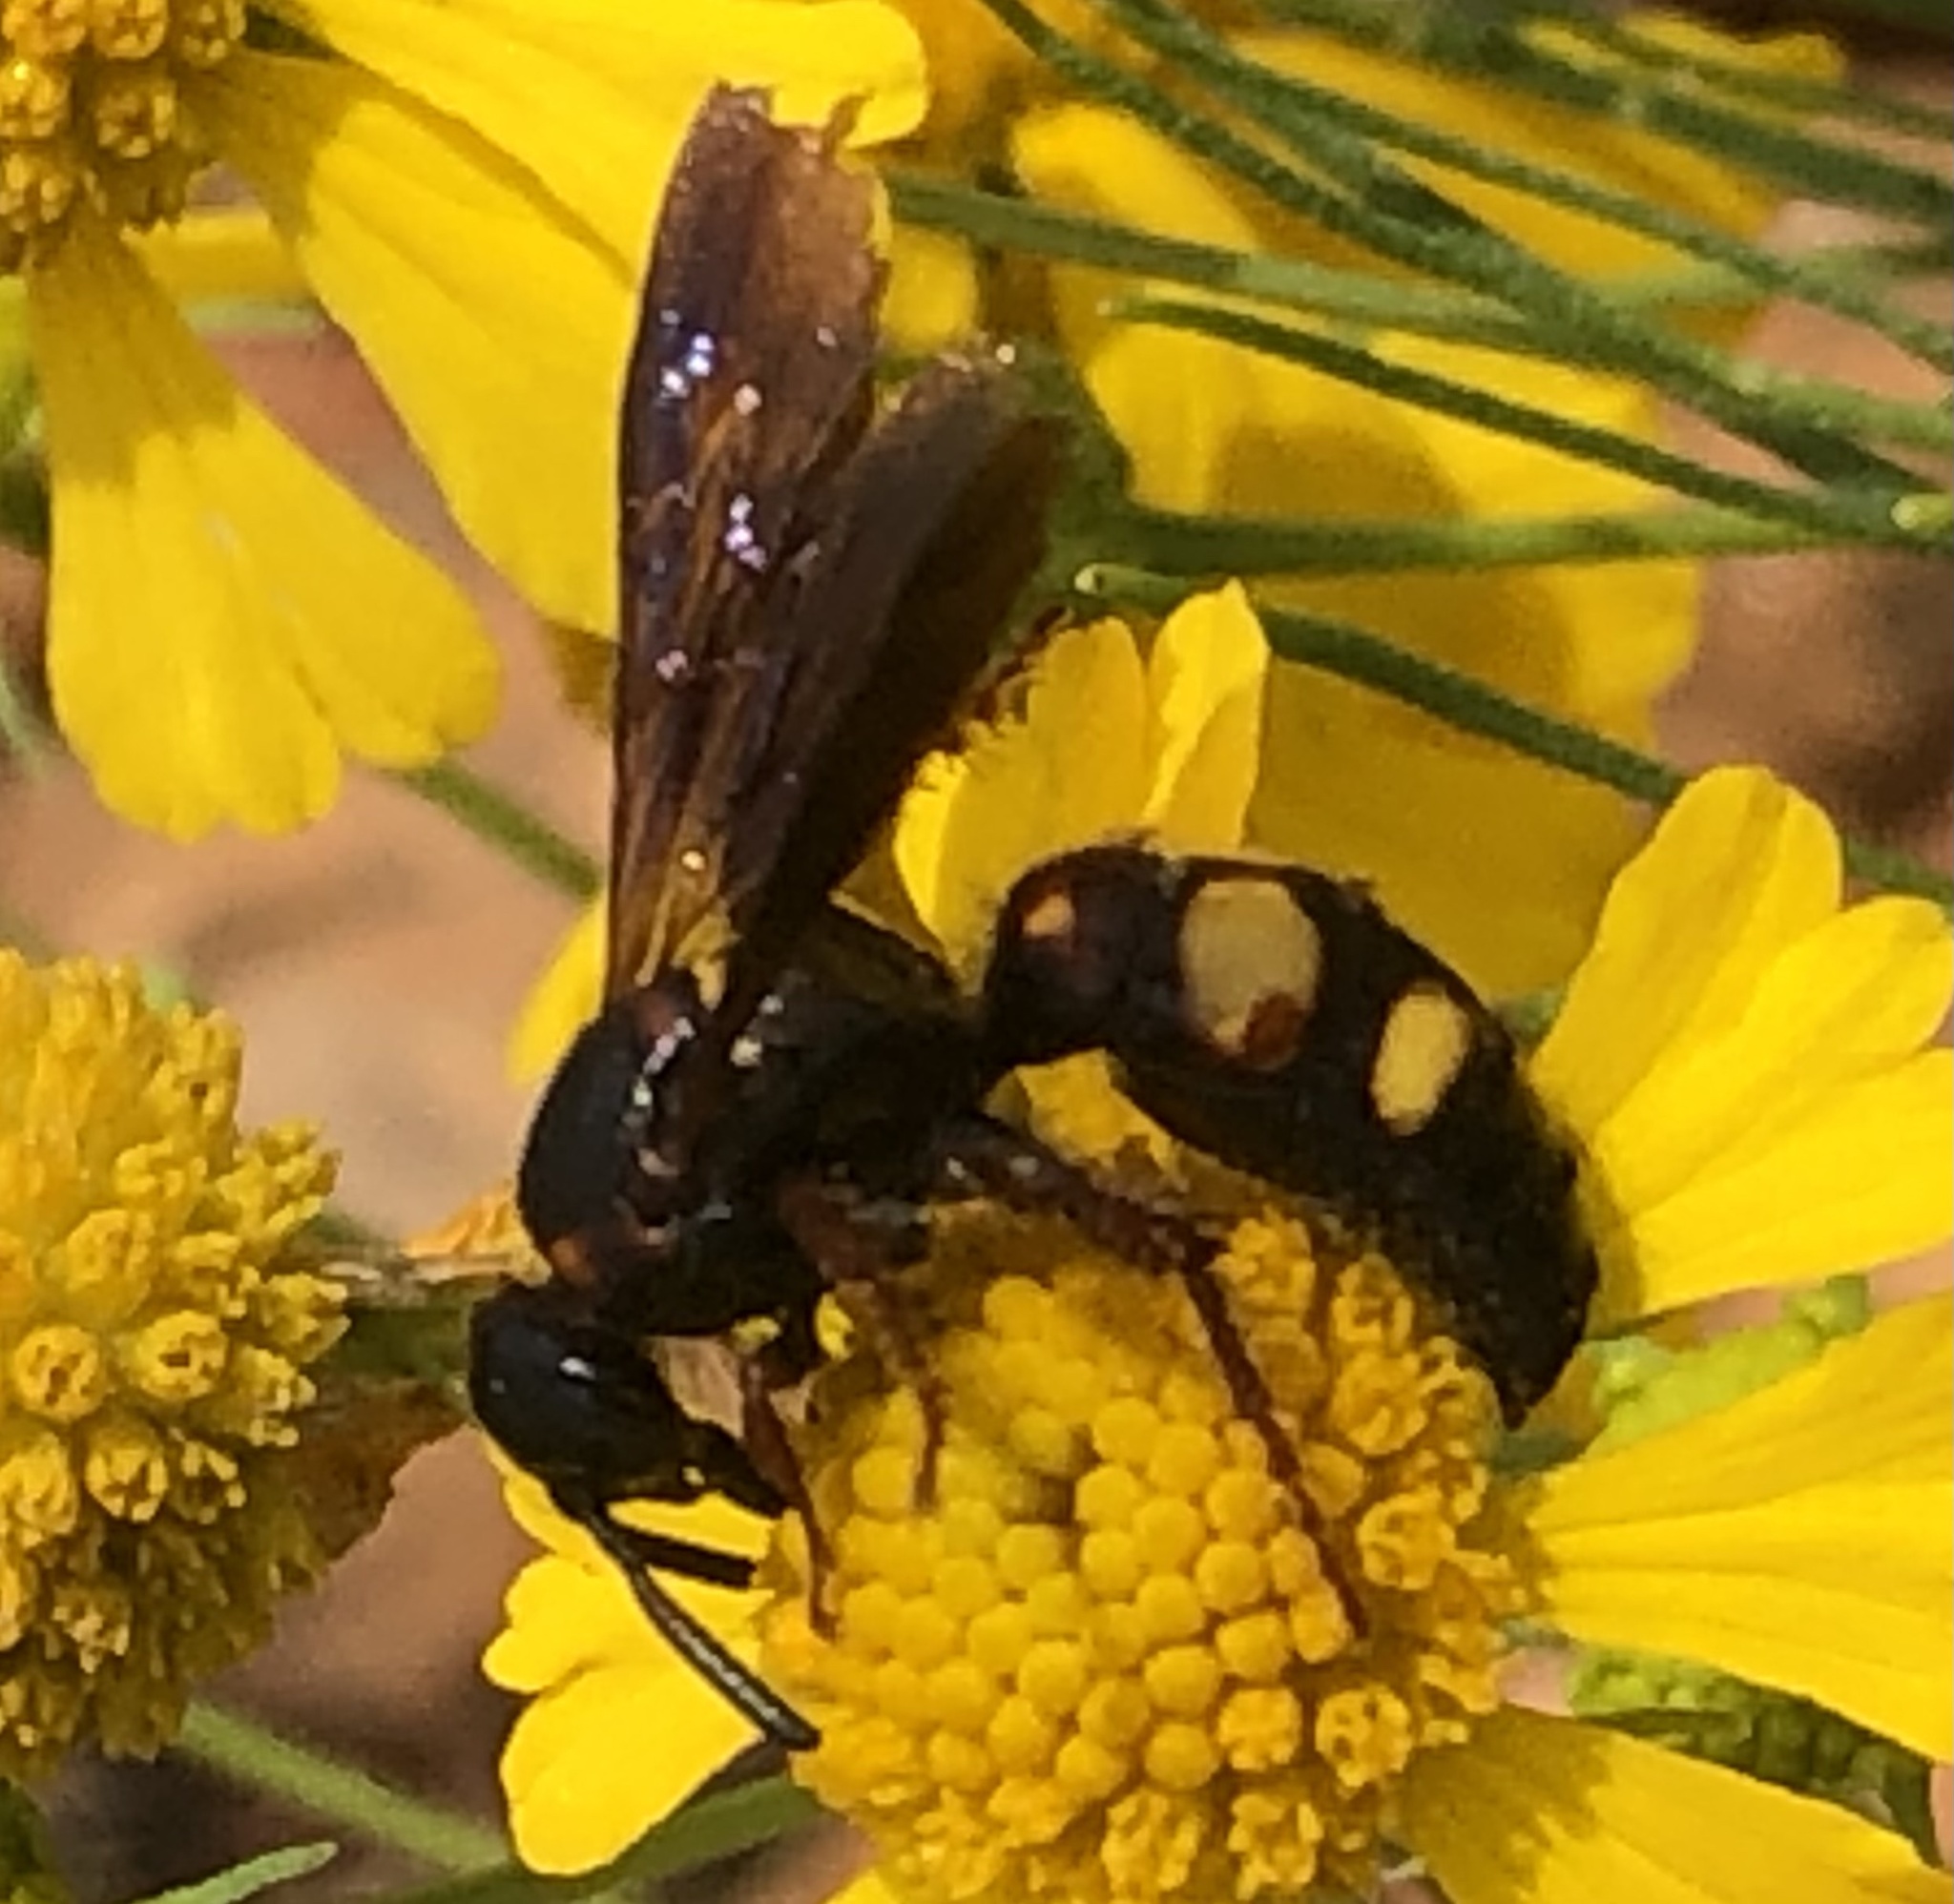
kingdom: Animalia
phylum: Arthropoda
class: Insecta
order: Hymenoptera
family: Scoliidae
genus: Scolia
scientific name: Scolia nobilitata
